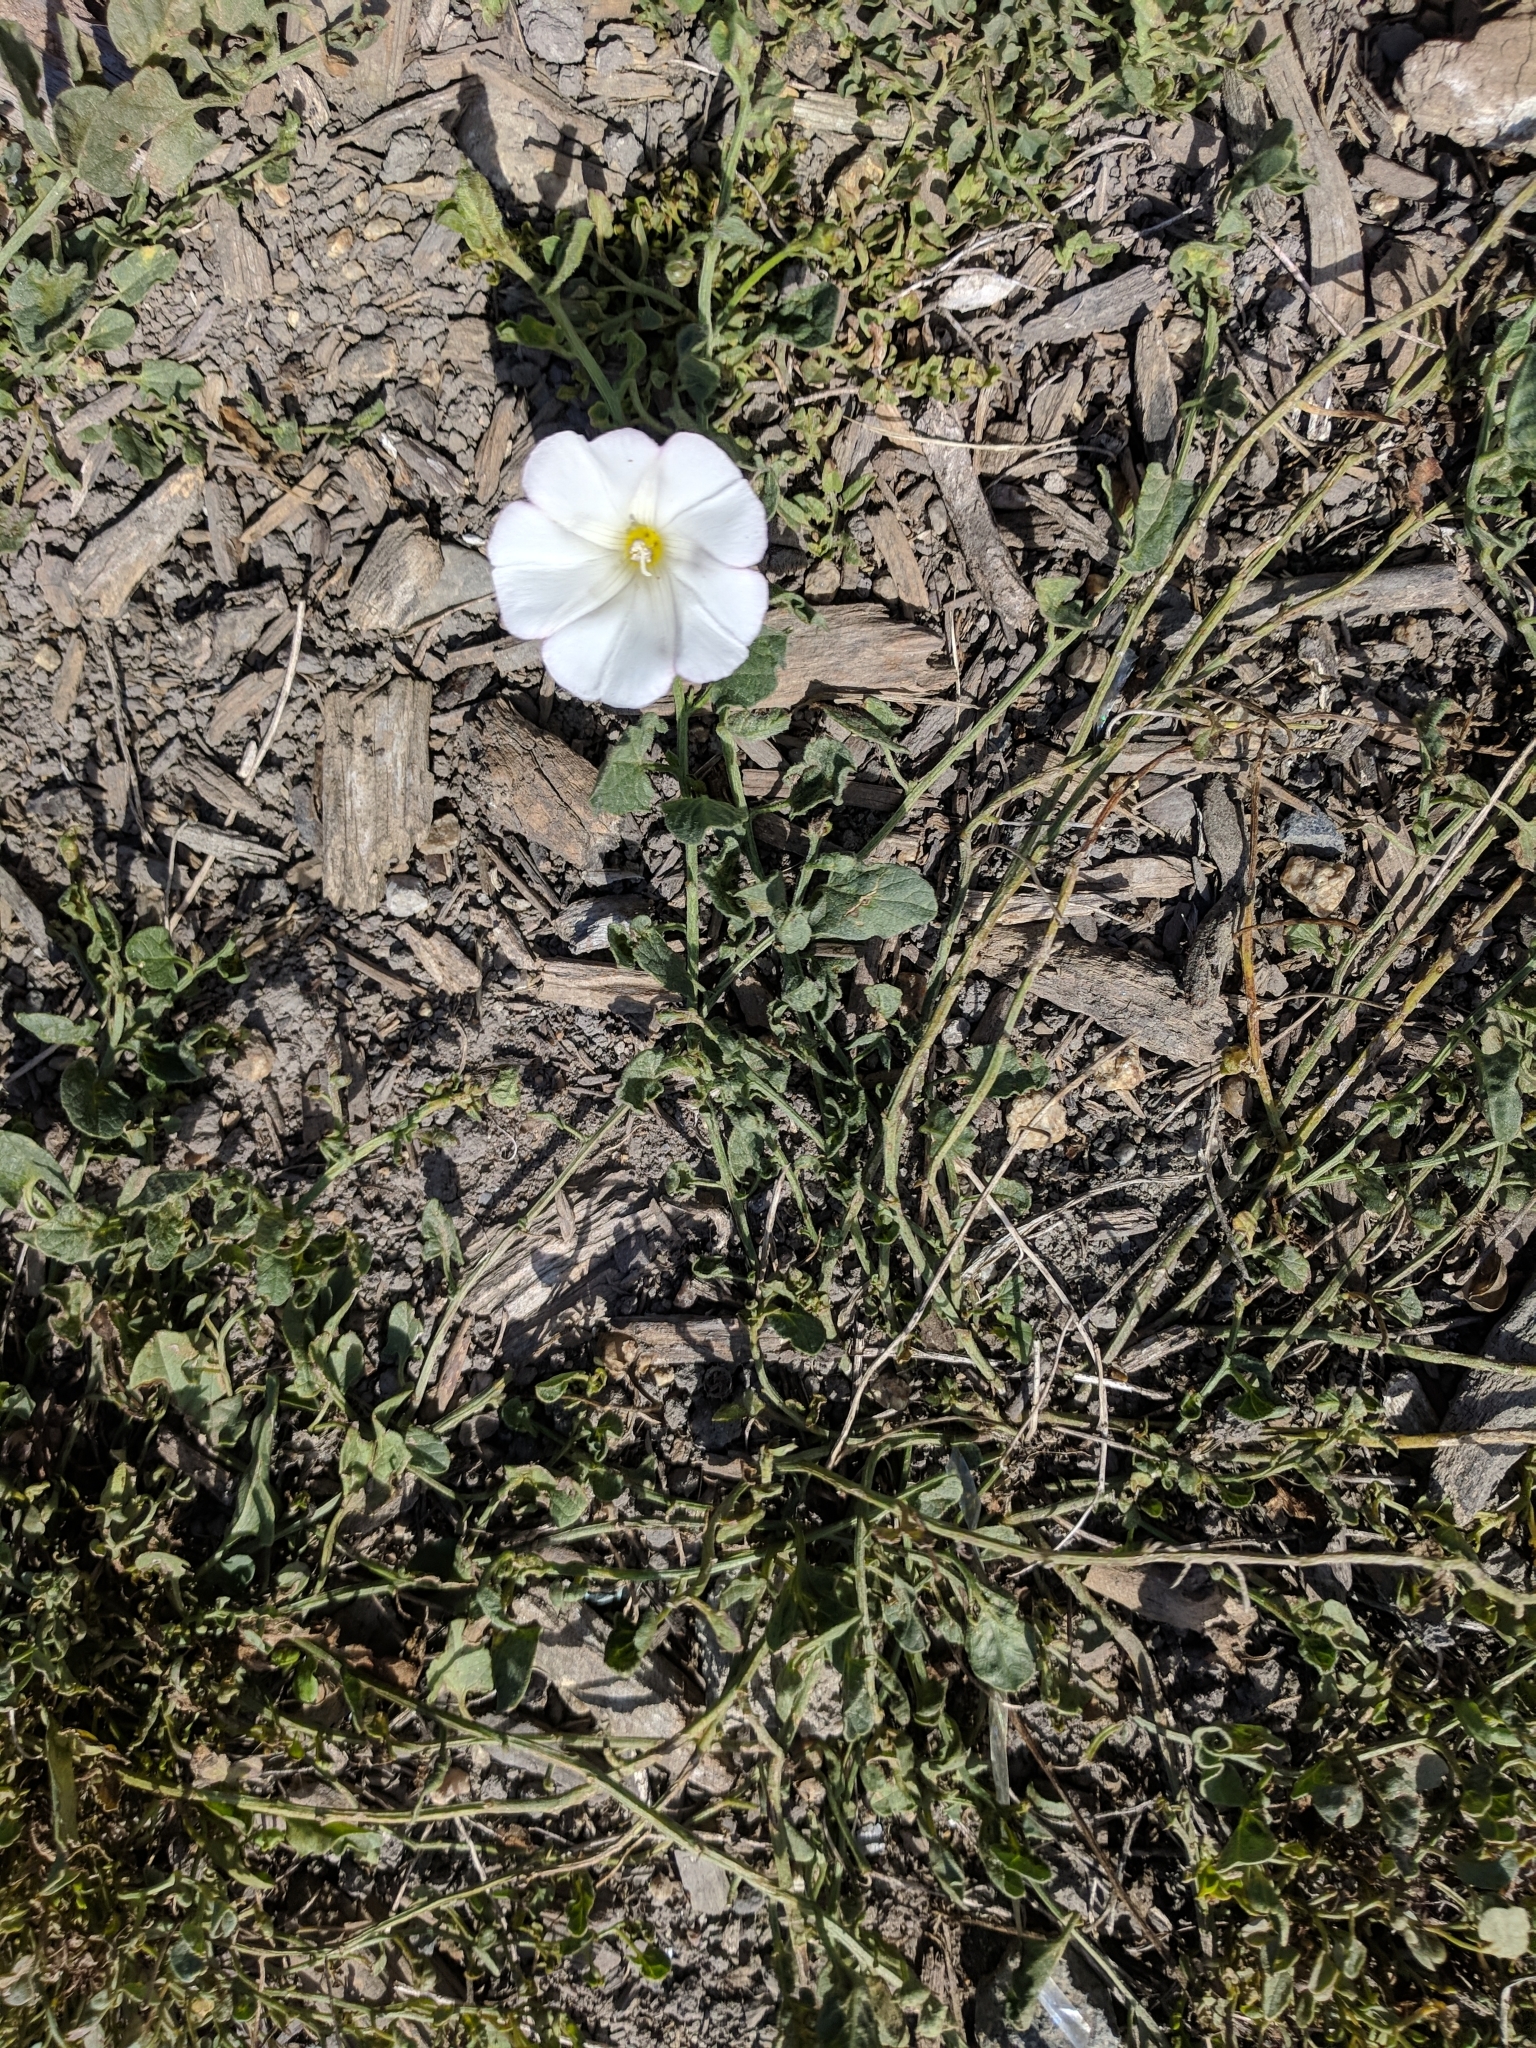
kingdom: Plantae
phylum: Tracheophyta
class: Magnoliopsida
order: Solanales
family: Convolvulaceae
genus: Convolvulus
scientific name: Convolvulus arvensis
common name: Field bindweed
